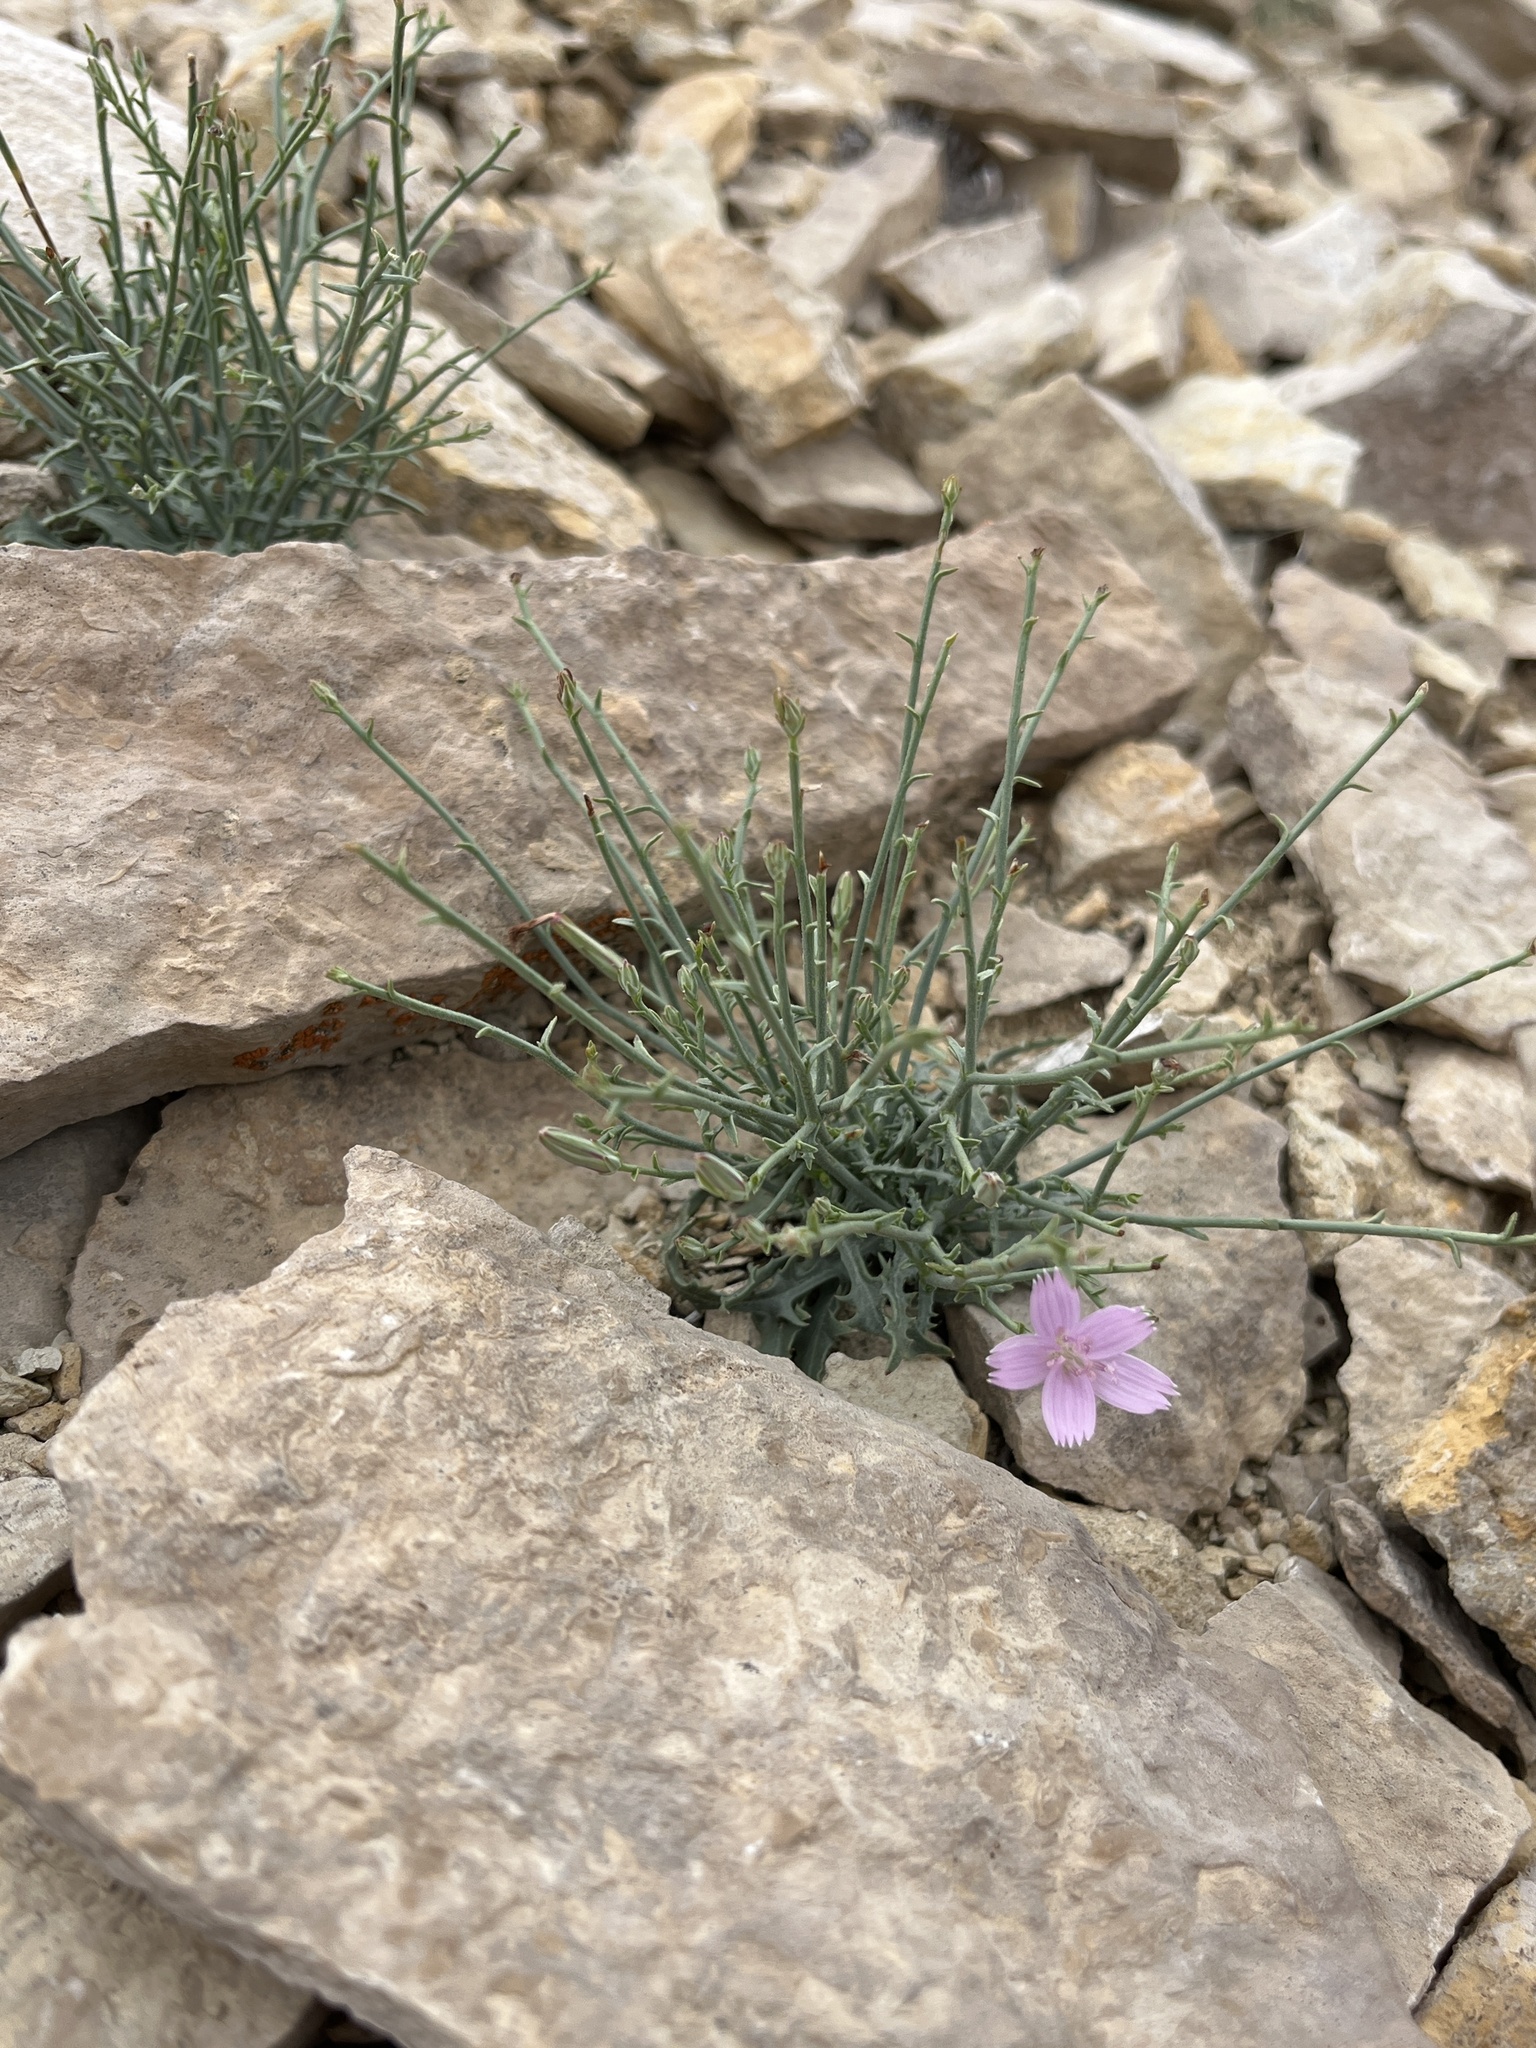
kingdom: Plantae
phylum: Tracheophyta
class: Magnoliopsida
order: Asterales
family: Asteraceae
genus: Stephanomeria
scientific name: Stephanomeria runcinata
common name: Desert wirelettuce
